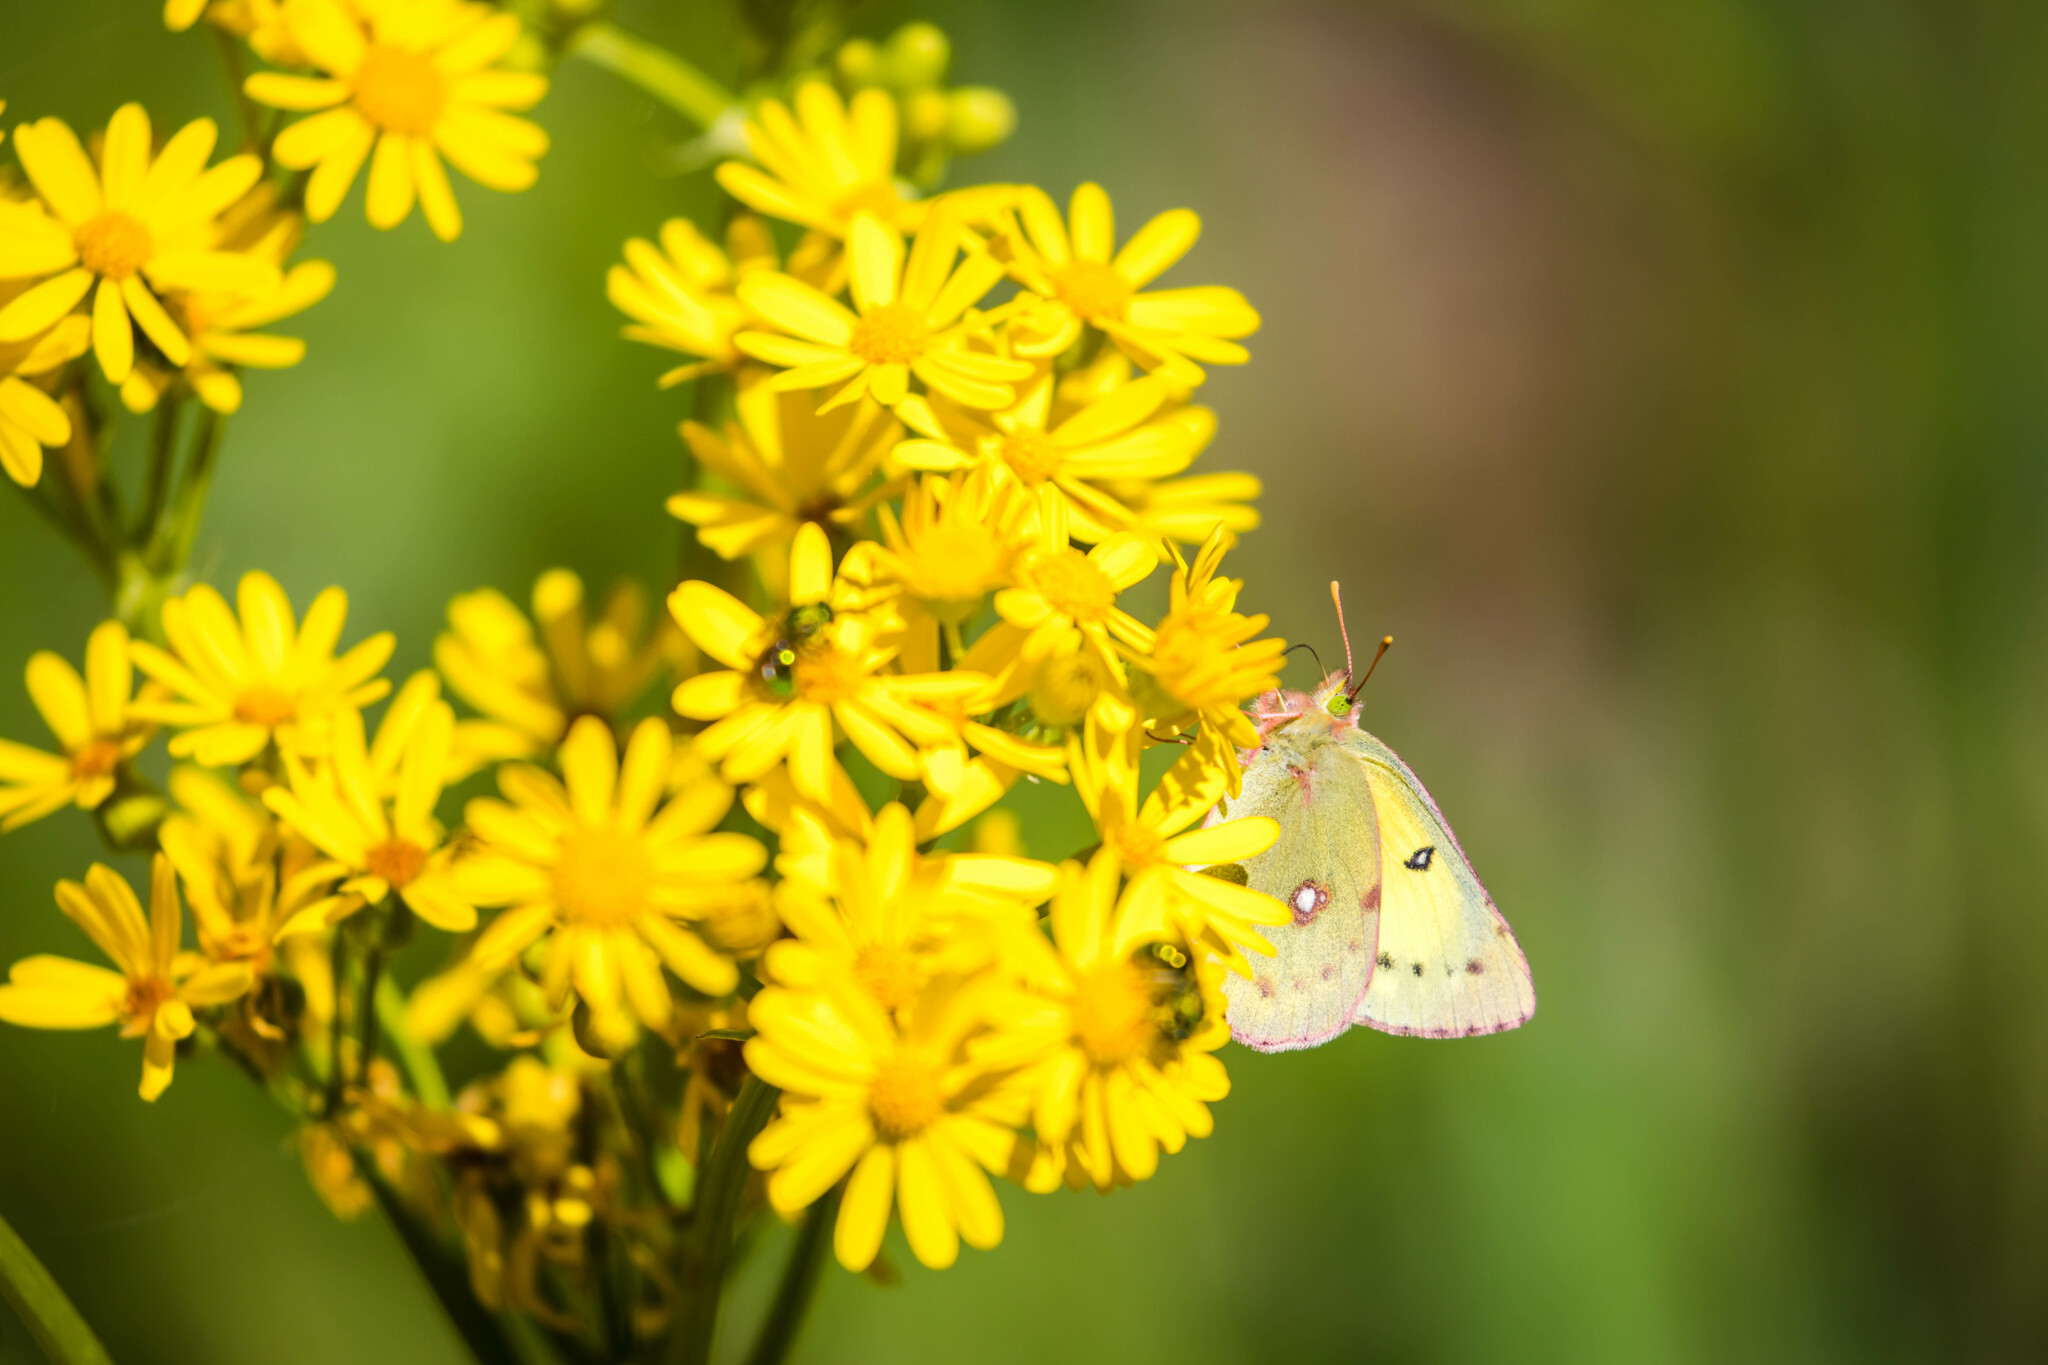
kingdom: Animalia
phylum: Arthropoda
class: Insecta
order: Lepidoptera
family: Pieridae
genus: Colias
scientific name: Colias eurytheme
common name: Alfalfa butterfly
